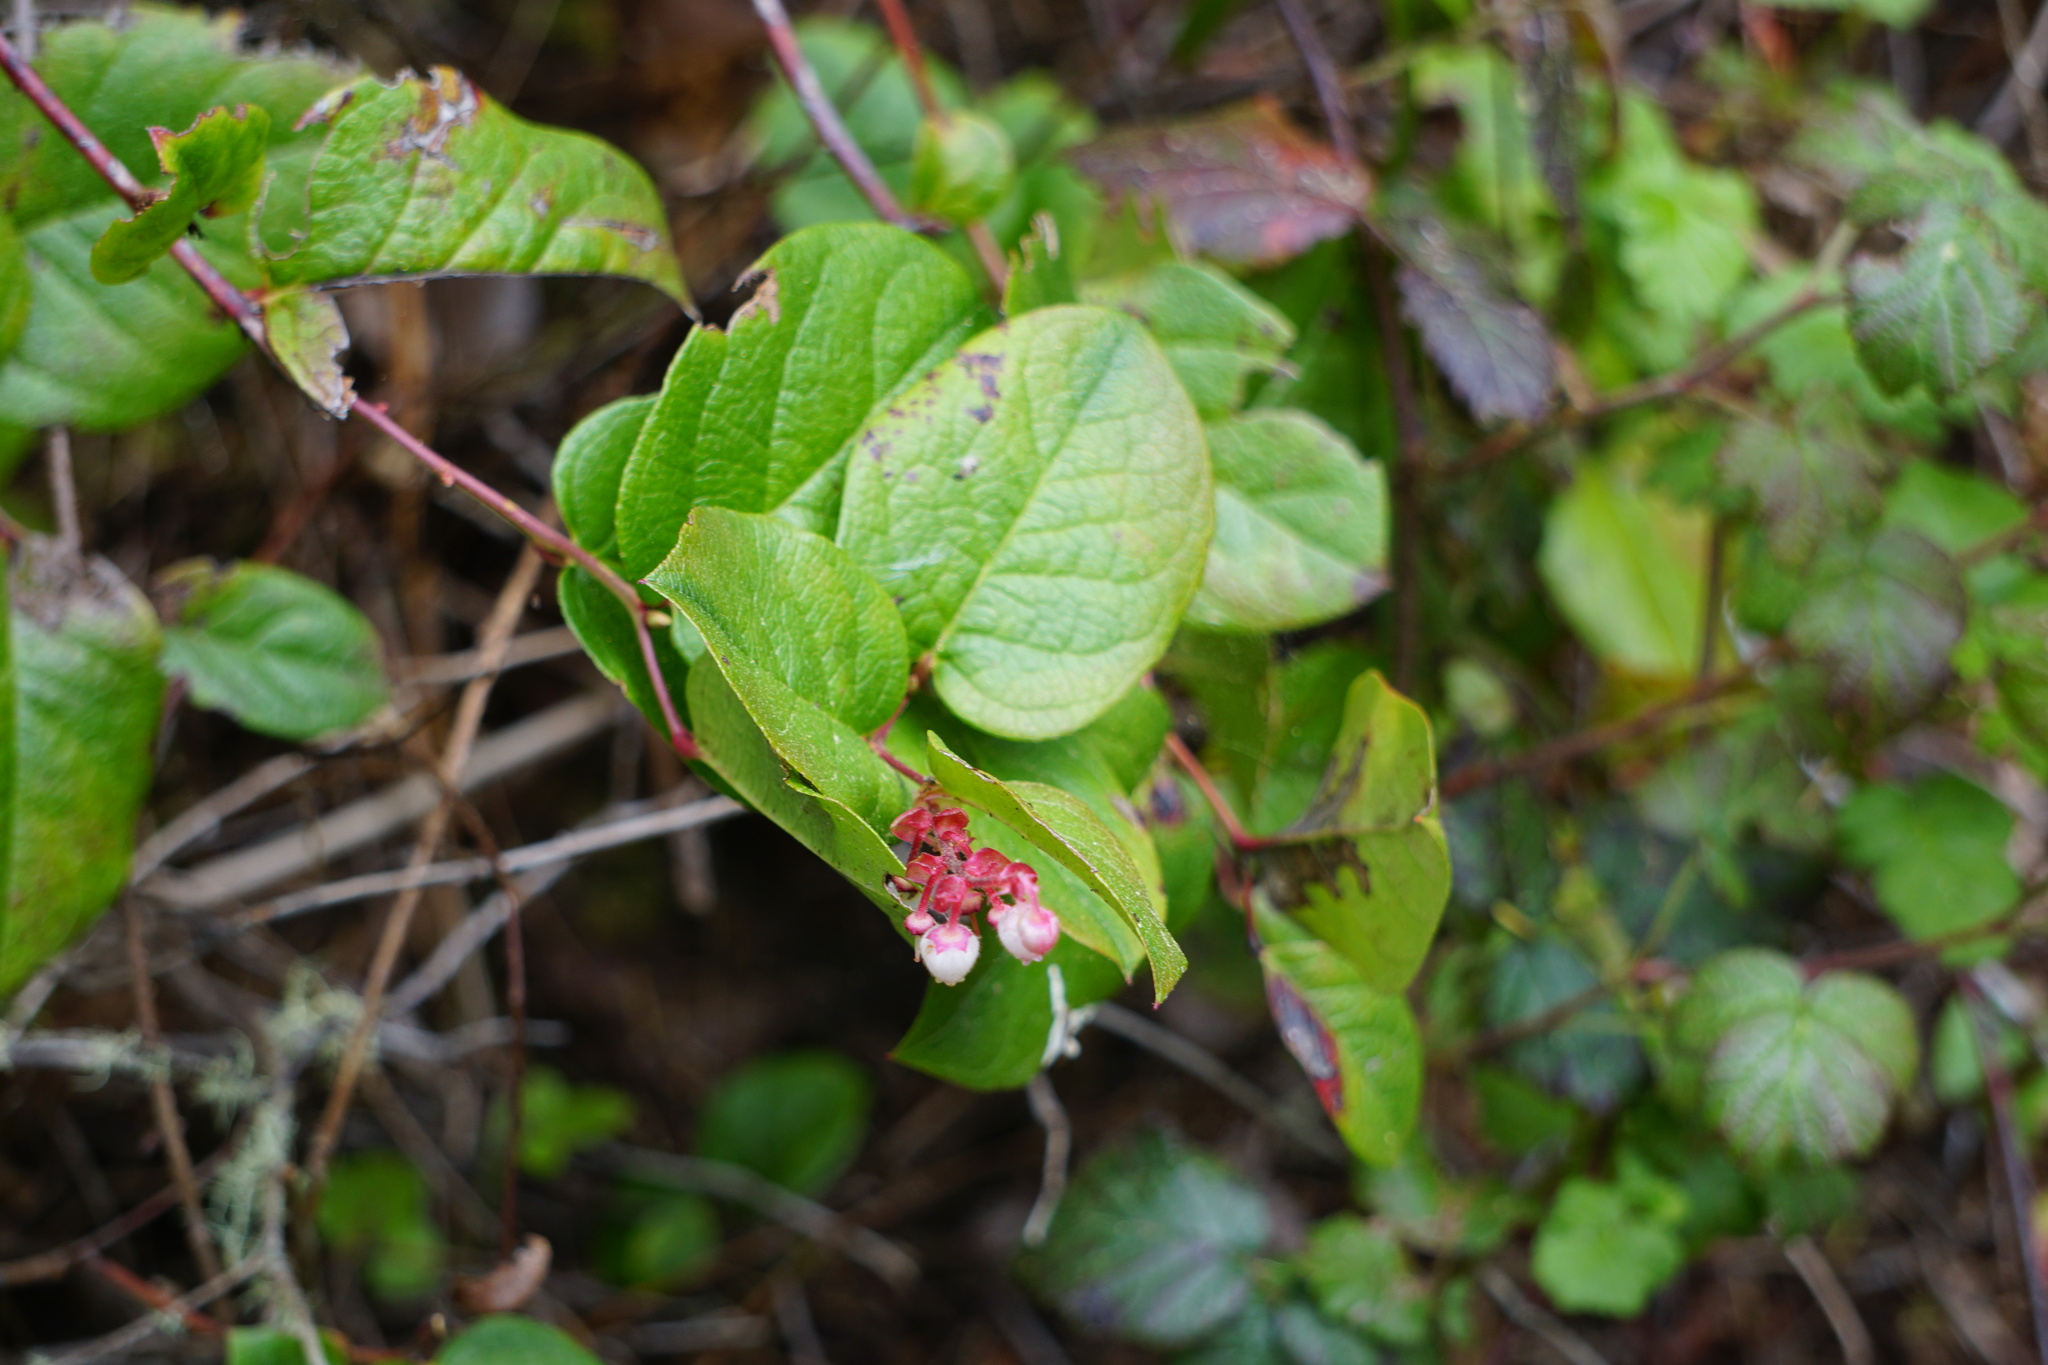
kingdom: Plantae
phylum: Tracheophyta
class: Magnoliopsida
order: Ericales
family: Ericaceae
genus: Gaultheria
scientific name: Gaultheria shallon
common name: Shallon
